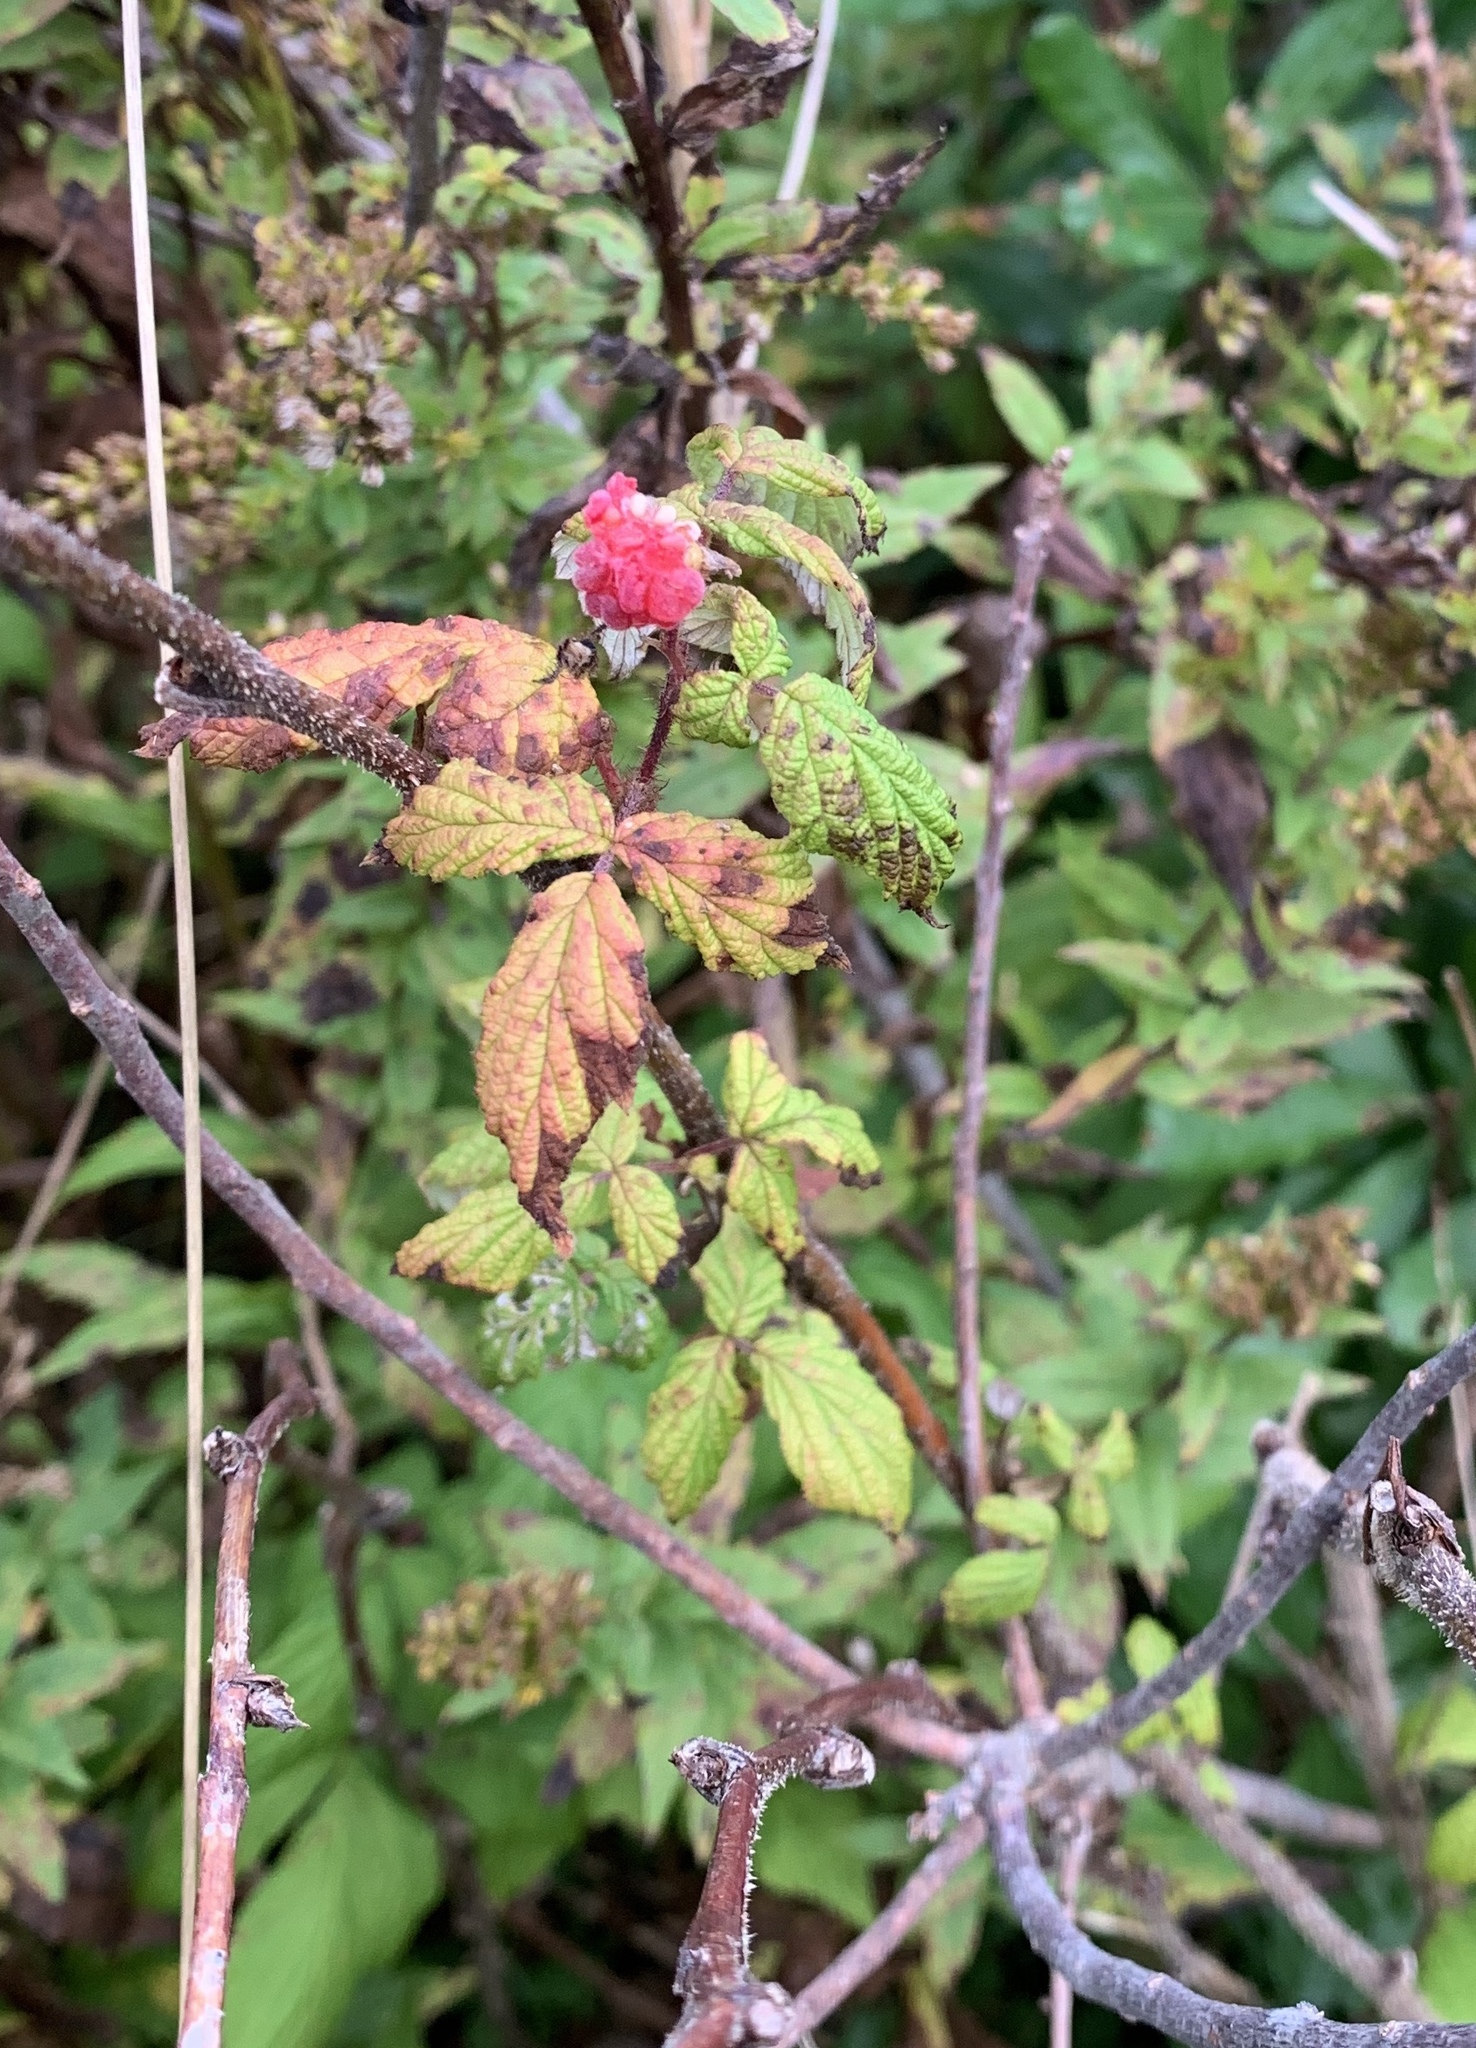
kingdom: Plantae
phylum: Tracheophyta
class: Magnoliopsida
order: Rosales
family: Rosaceae
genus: Rubus
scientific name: Rubus idaeus
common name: Raspberry
